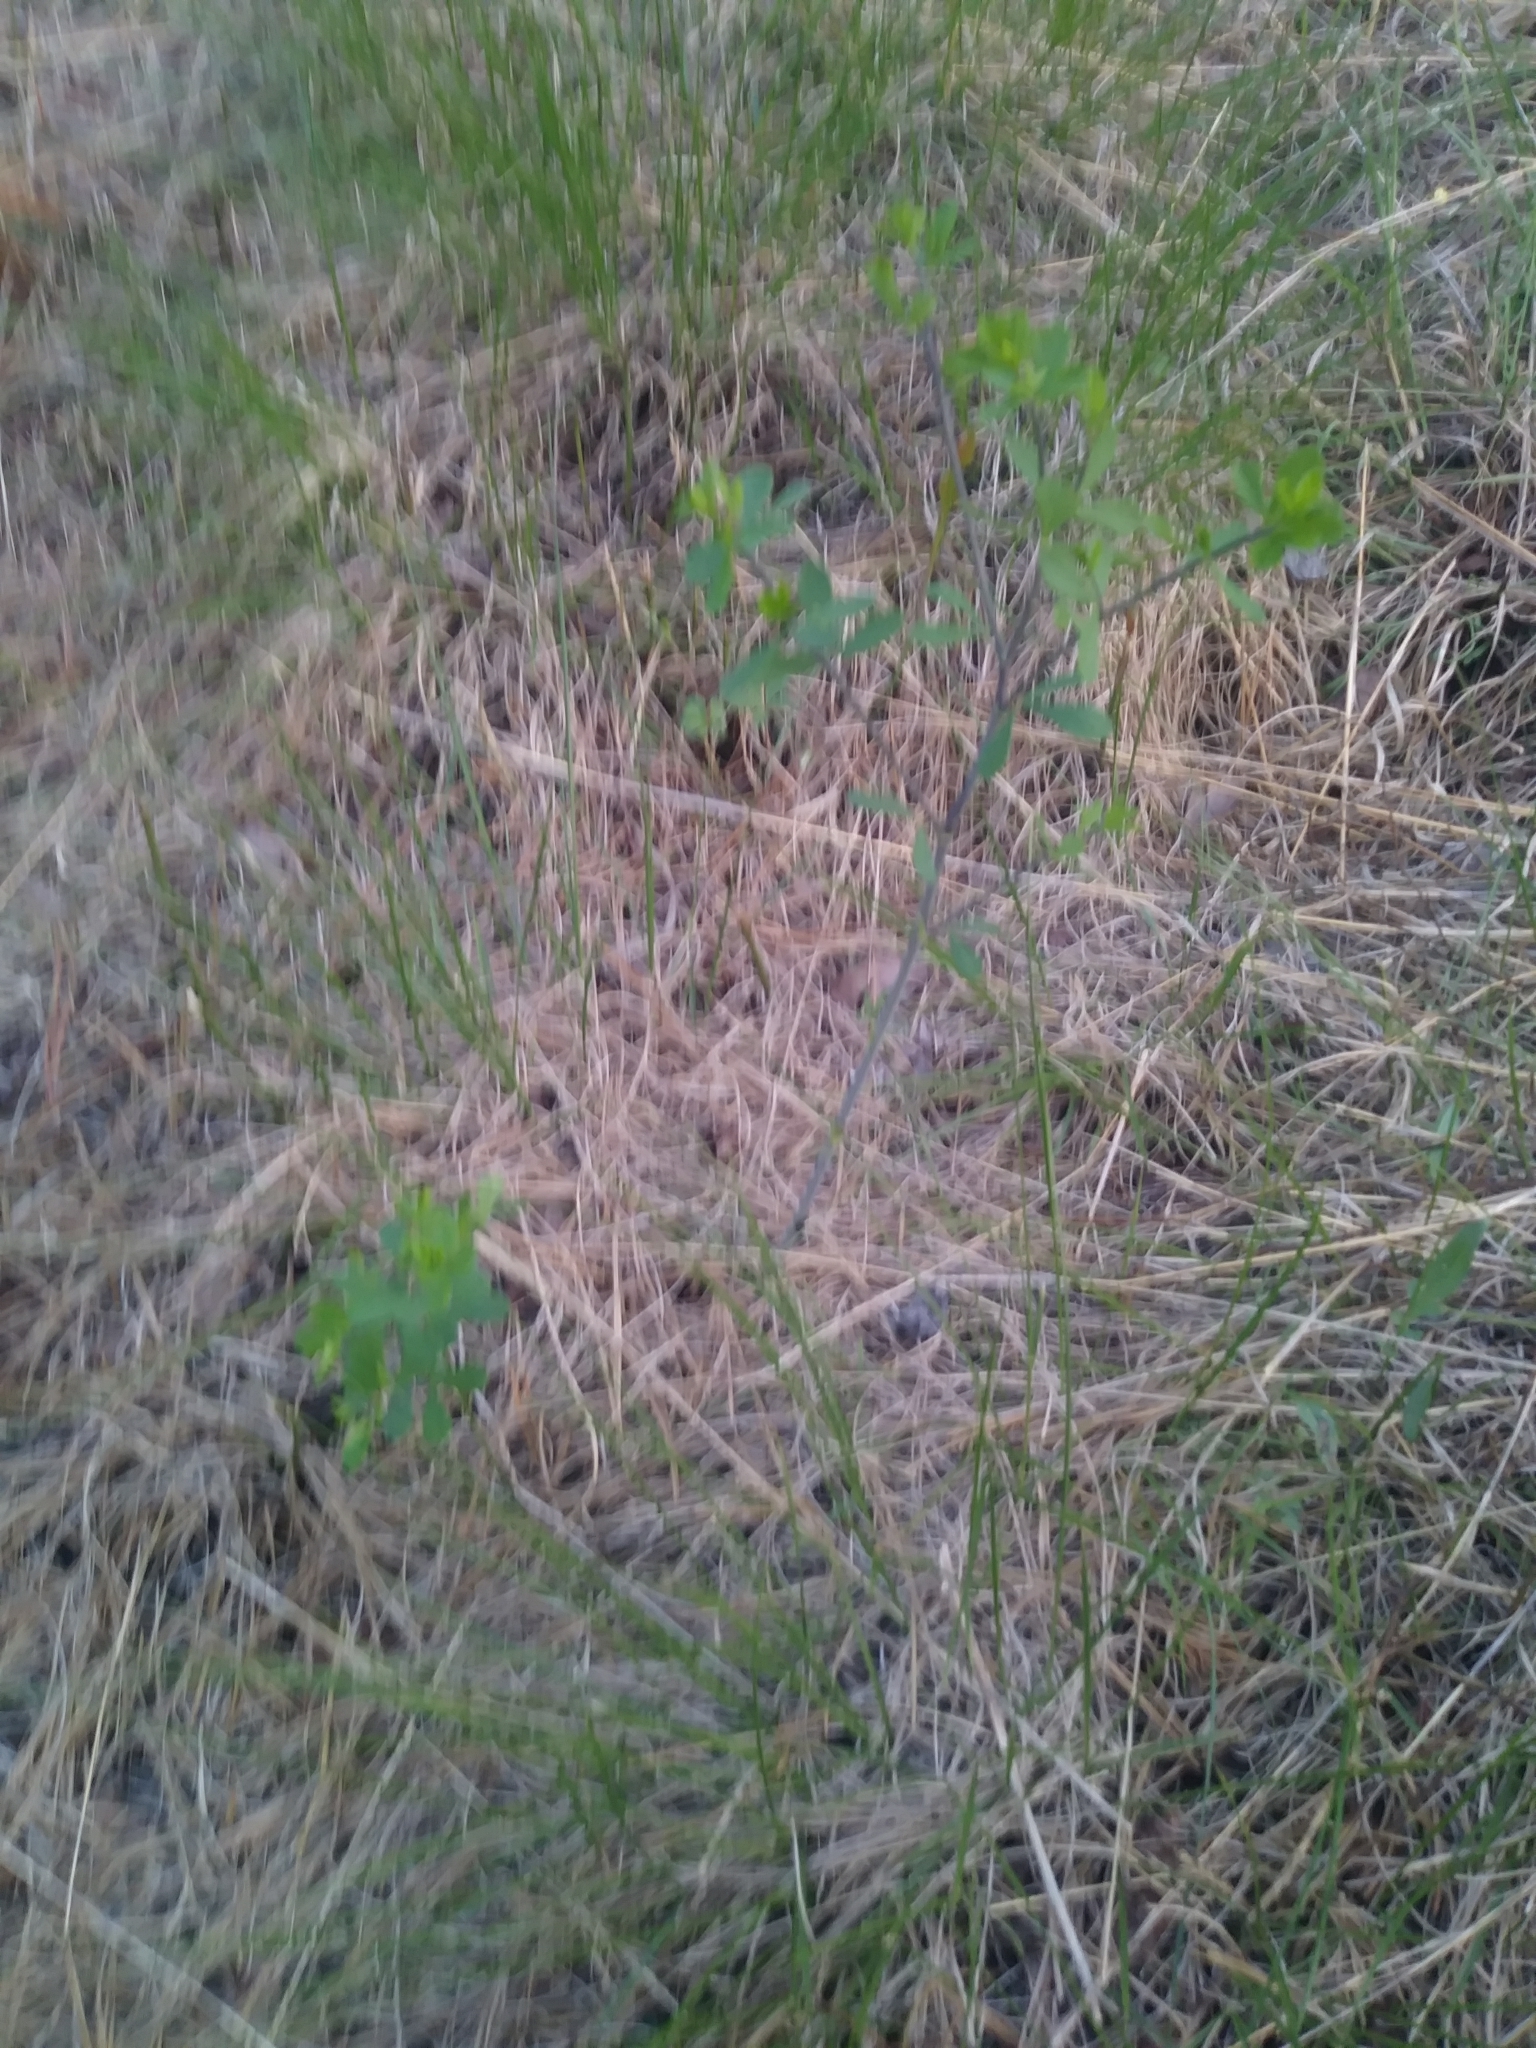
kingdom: Plantae
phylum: Tracheophyta
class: Magnoliopsida
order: Fabales
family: Fabaceae
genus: Baptisia
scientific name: Baptisia tinctoria
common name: Wild indigo
